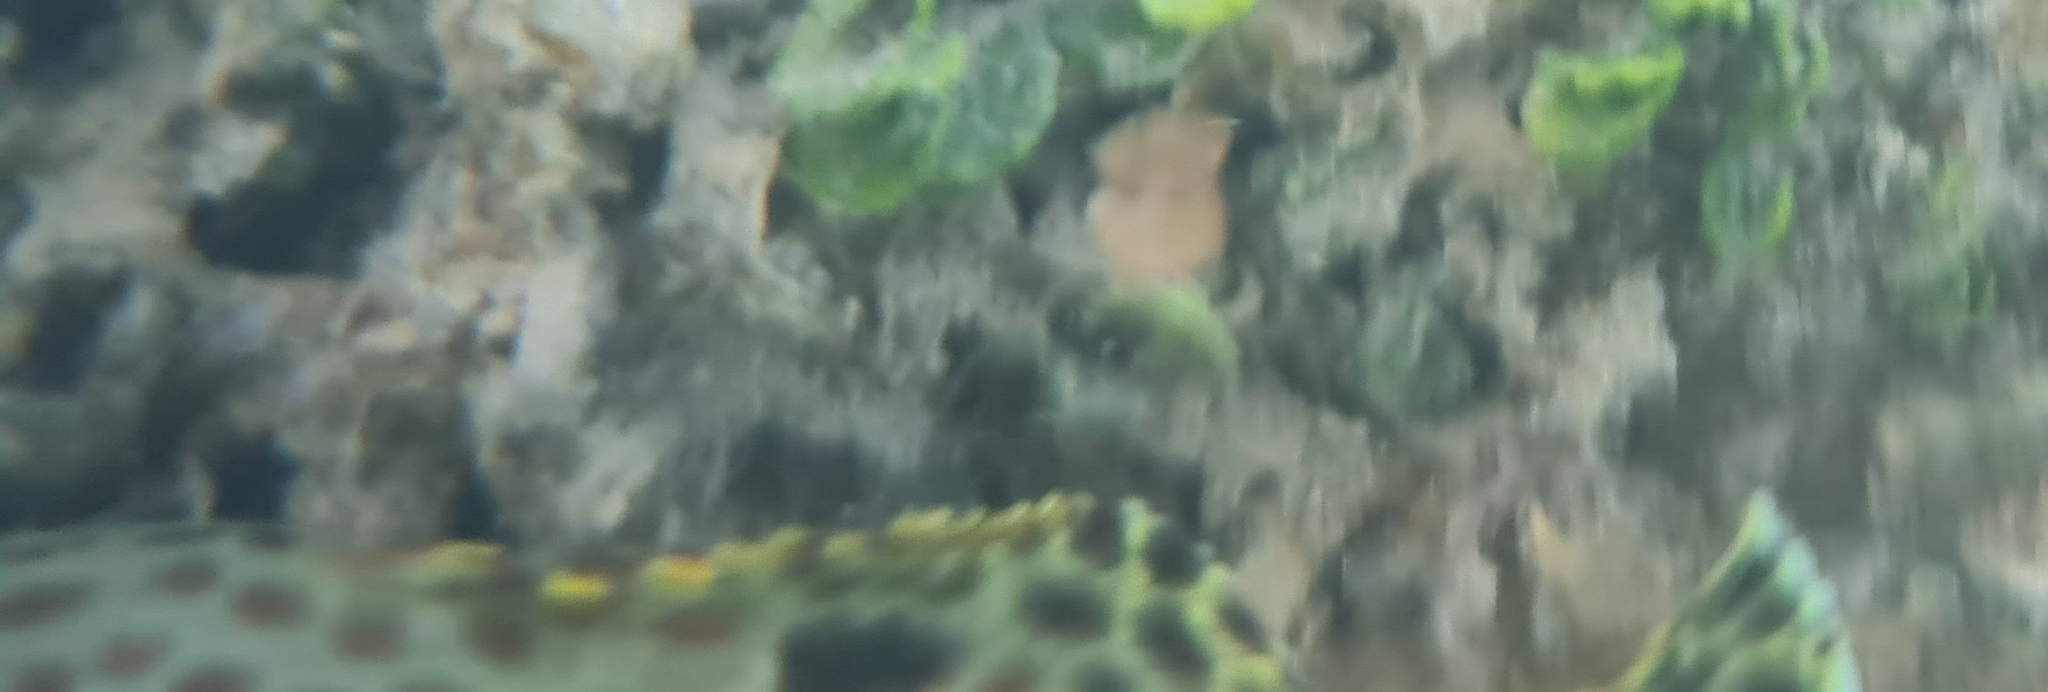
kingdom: Animalia
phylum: Chordata
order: Perciformes
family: Serranidae
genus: Epinephelus
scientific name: Epinephelus adscensionis
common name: Rock hind
